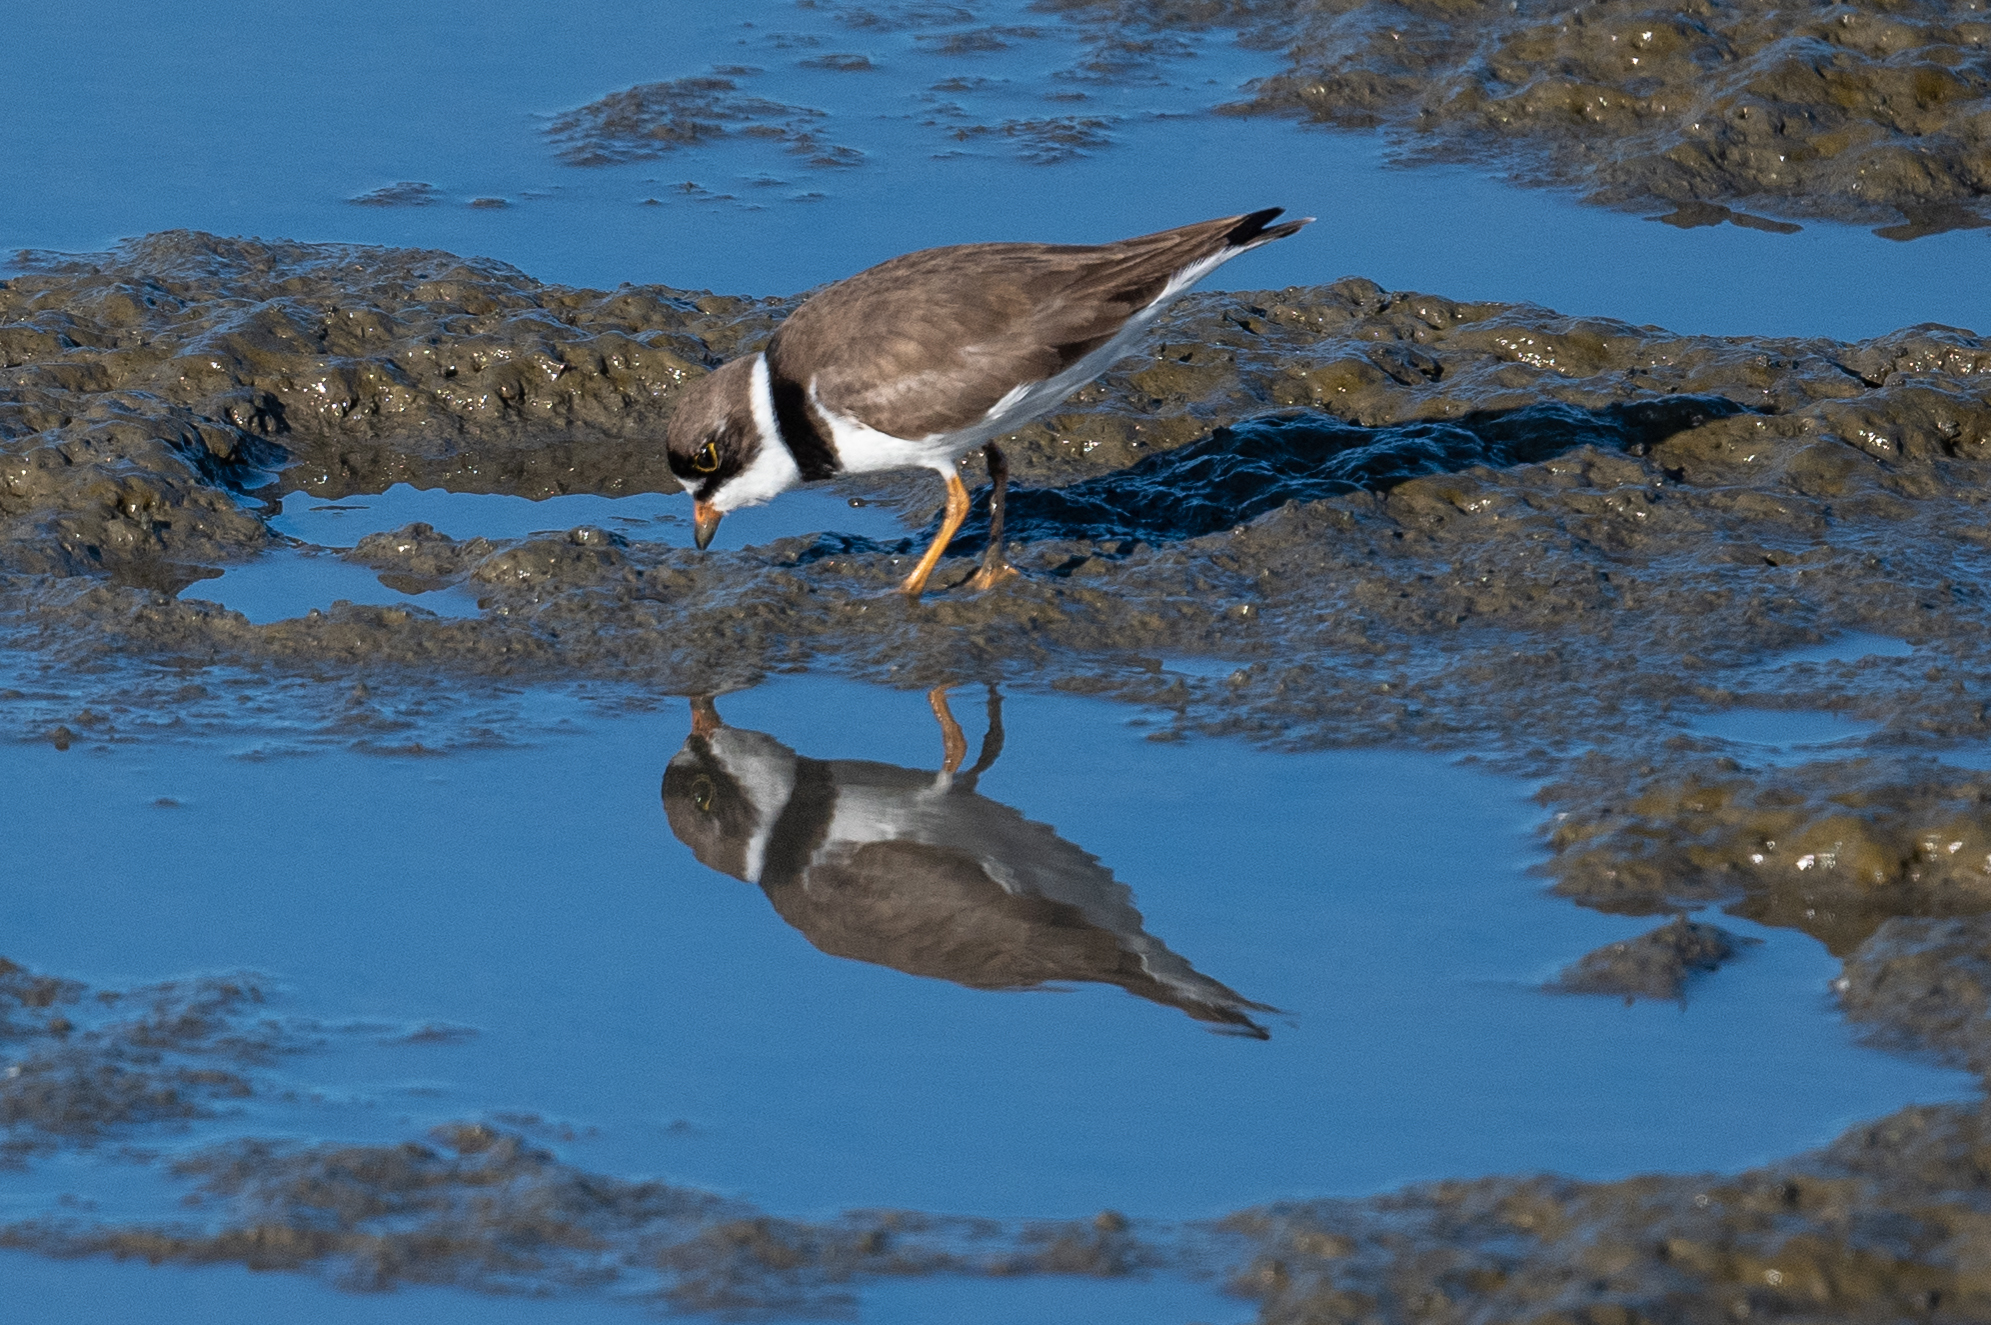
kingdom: Animalia
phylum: Chordata
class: Aves
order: Charadriiformes
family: Charadriidae
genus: Charadrius
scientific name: Charadrius semipalmatus
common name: Semipalmated plover
